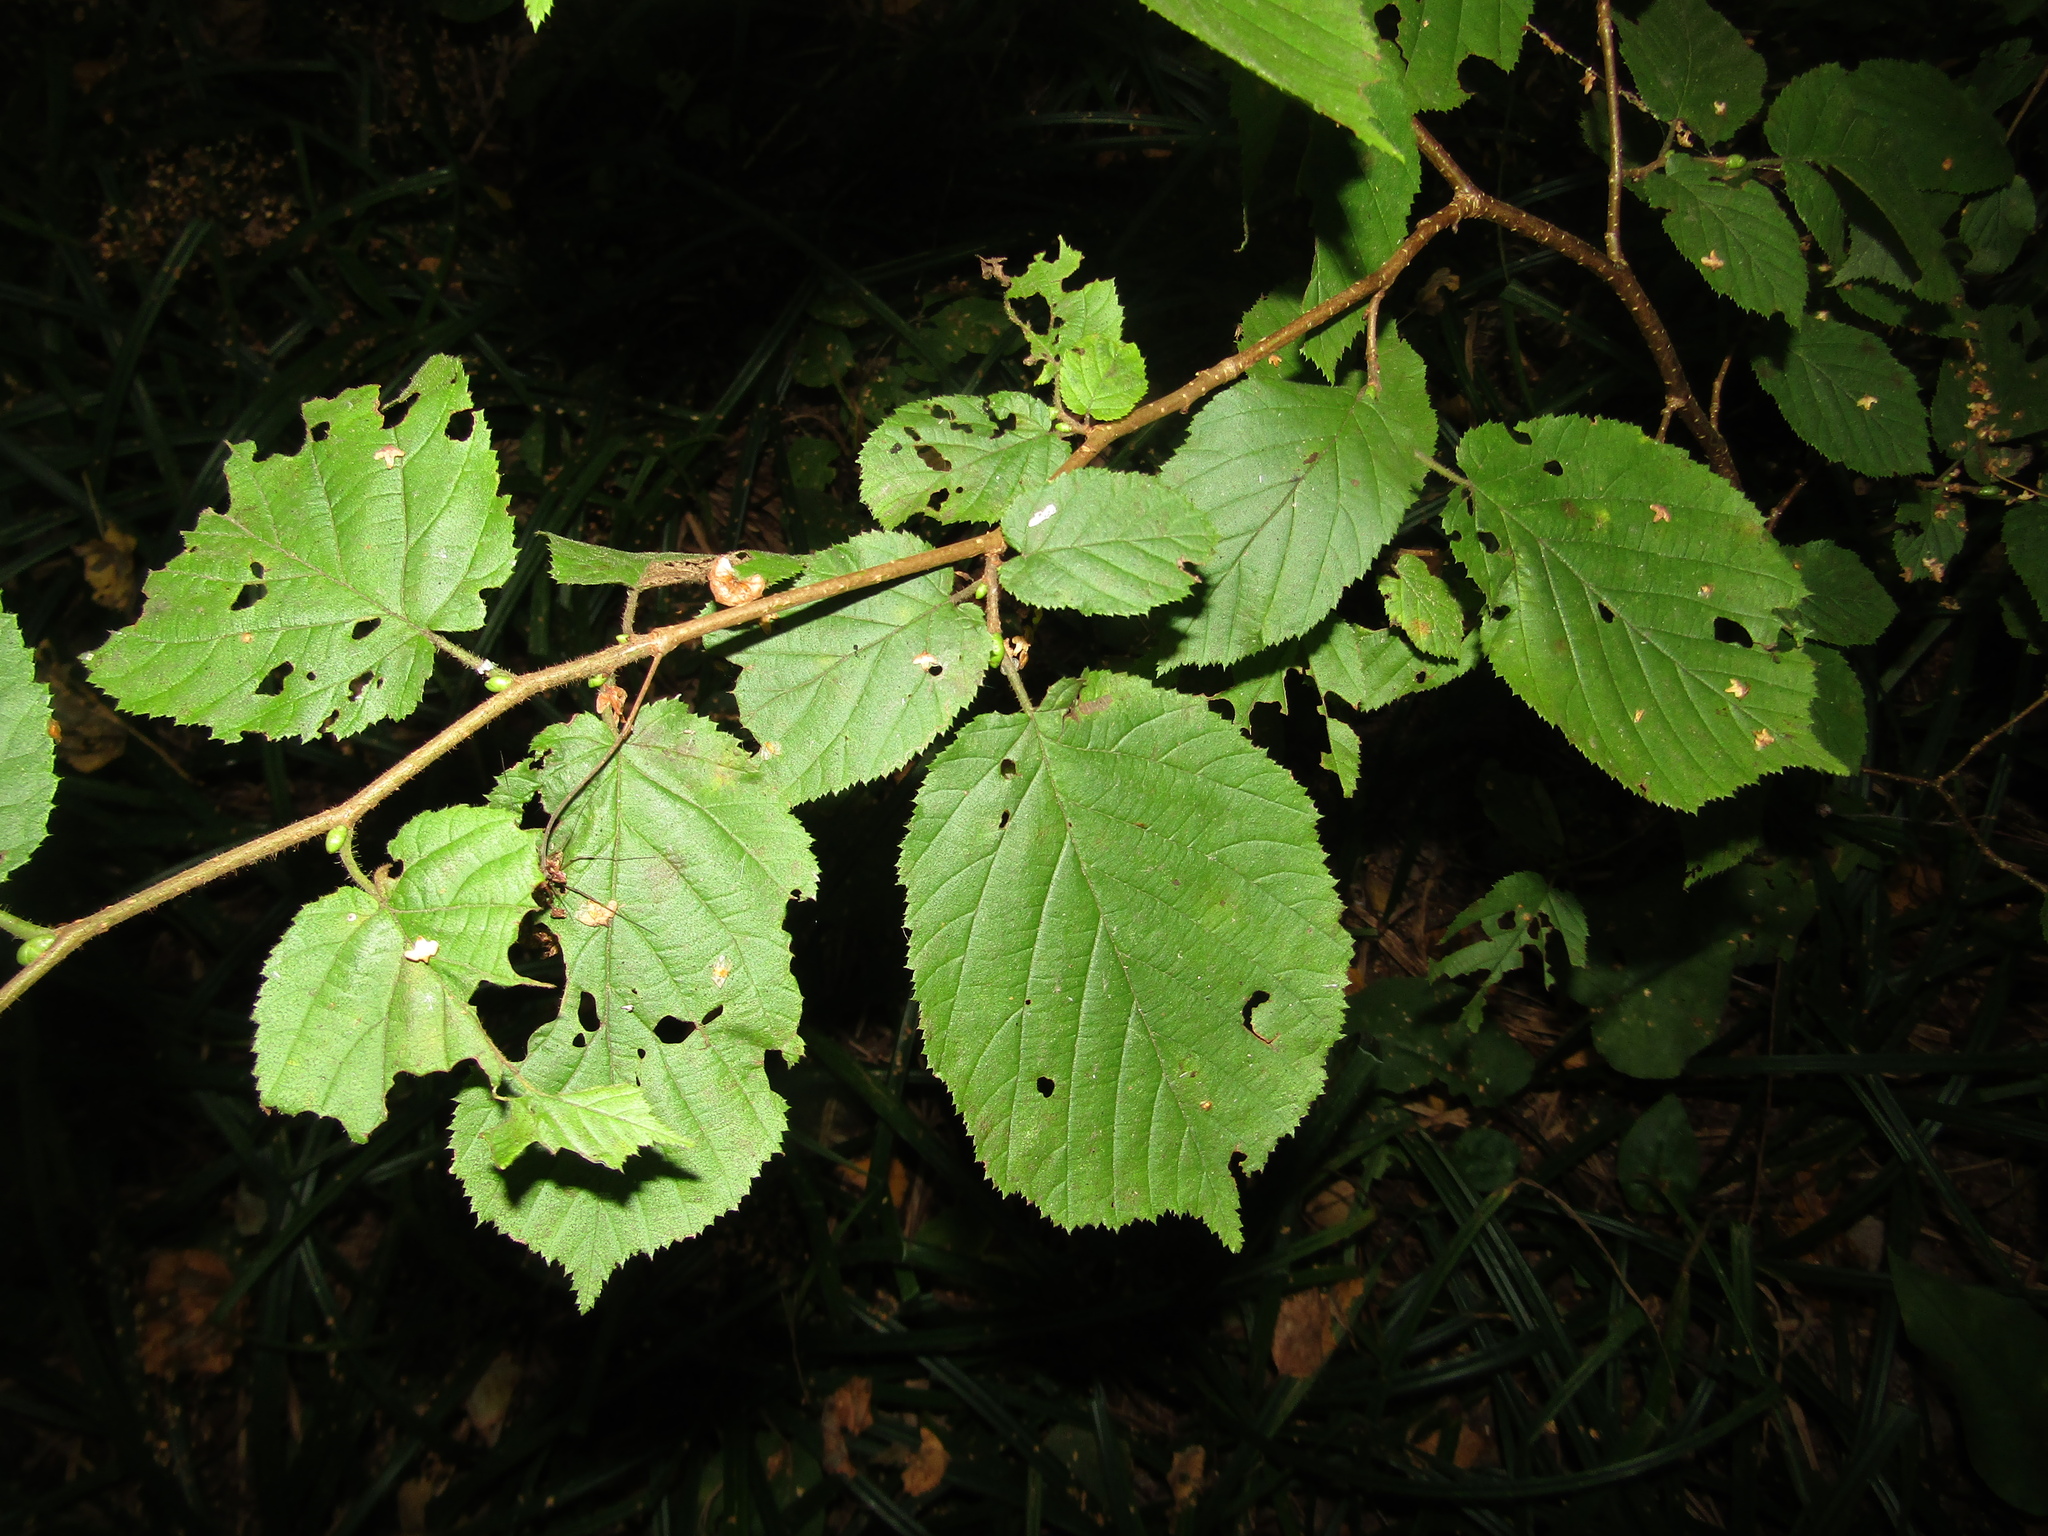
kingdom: Plantae
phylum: Tracheophyta
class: Magnoliopsida
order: Fagales
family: Betulaceae
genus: Corylus
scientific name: Corylus avellana
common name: European hazel
